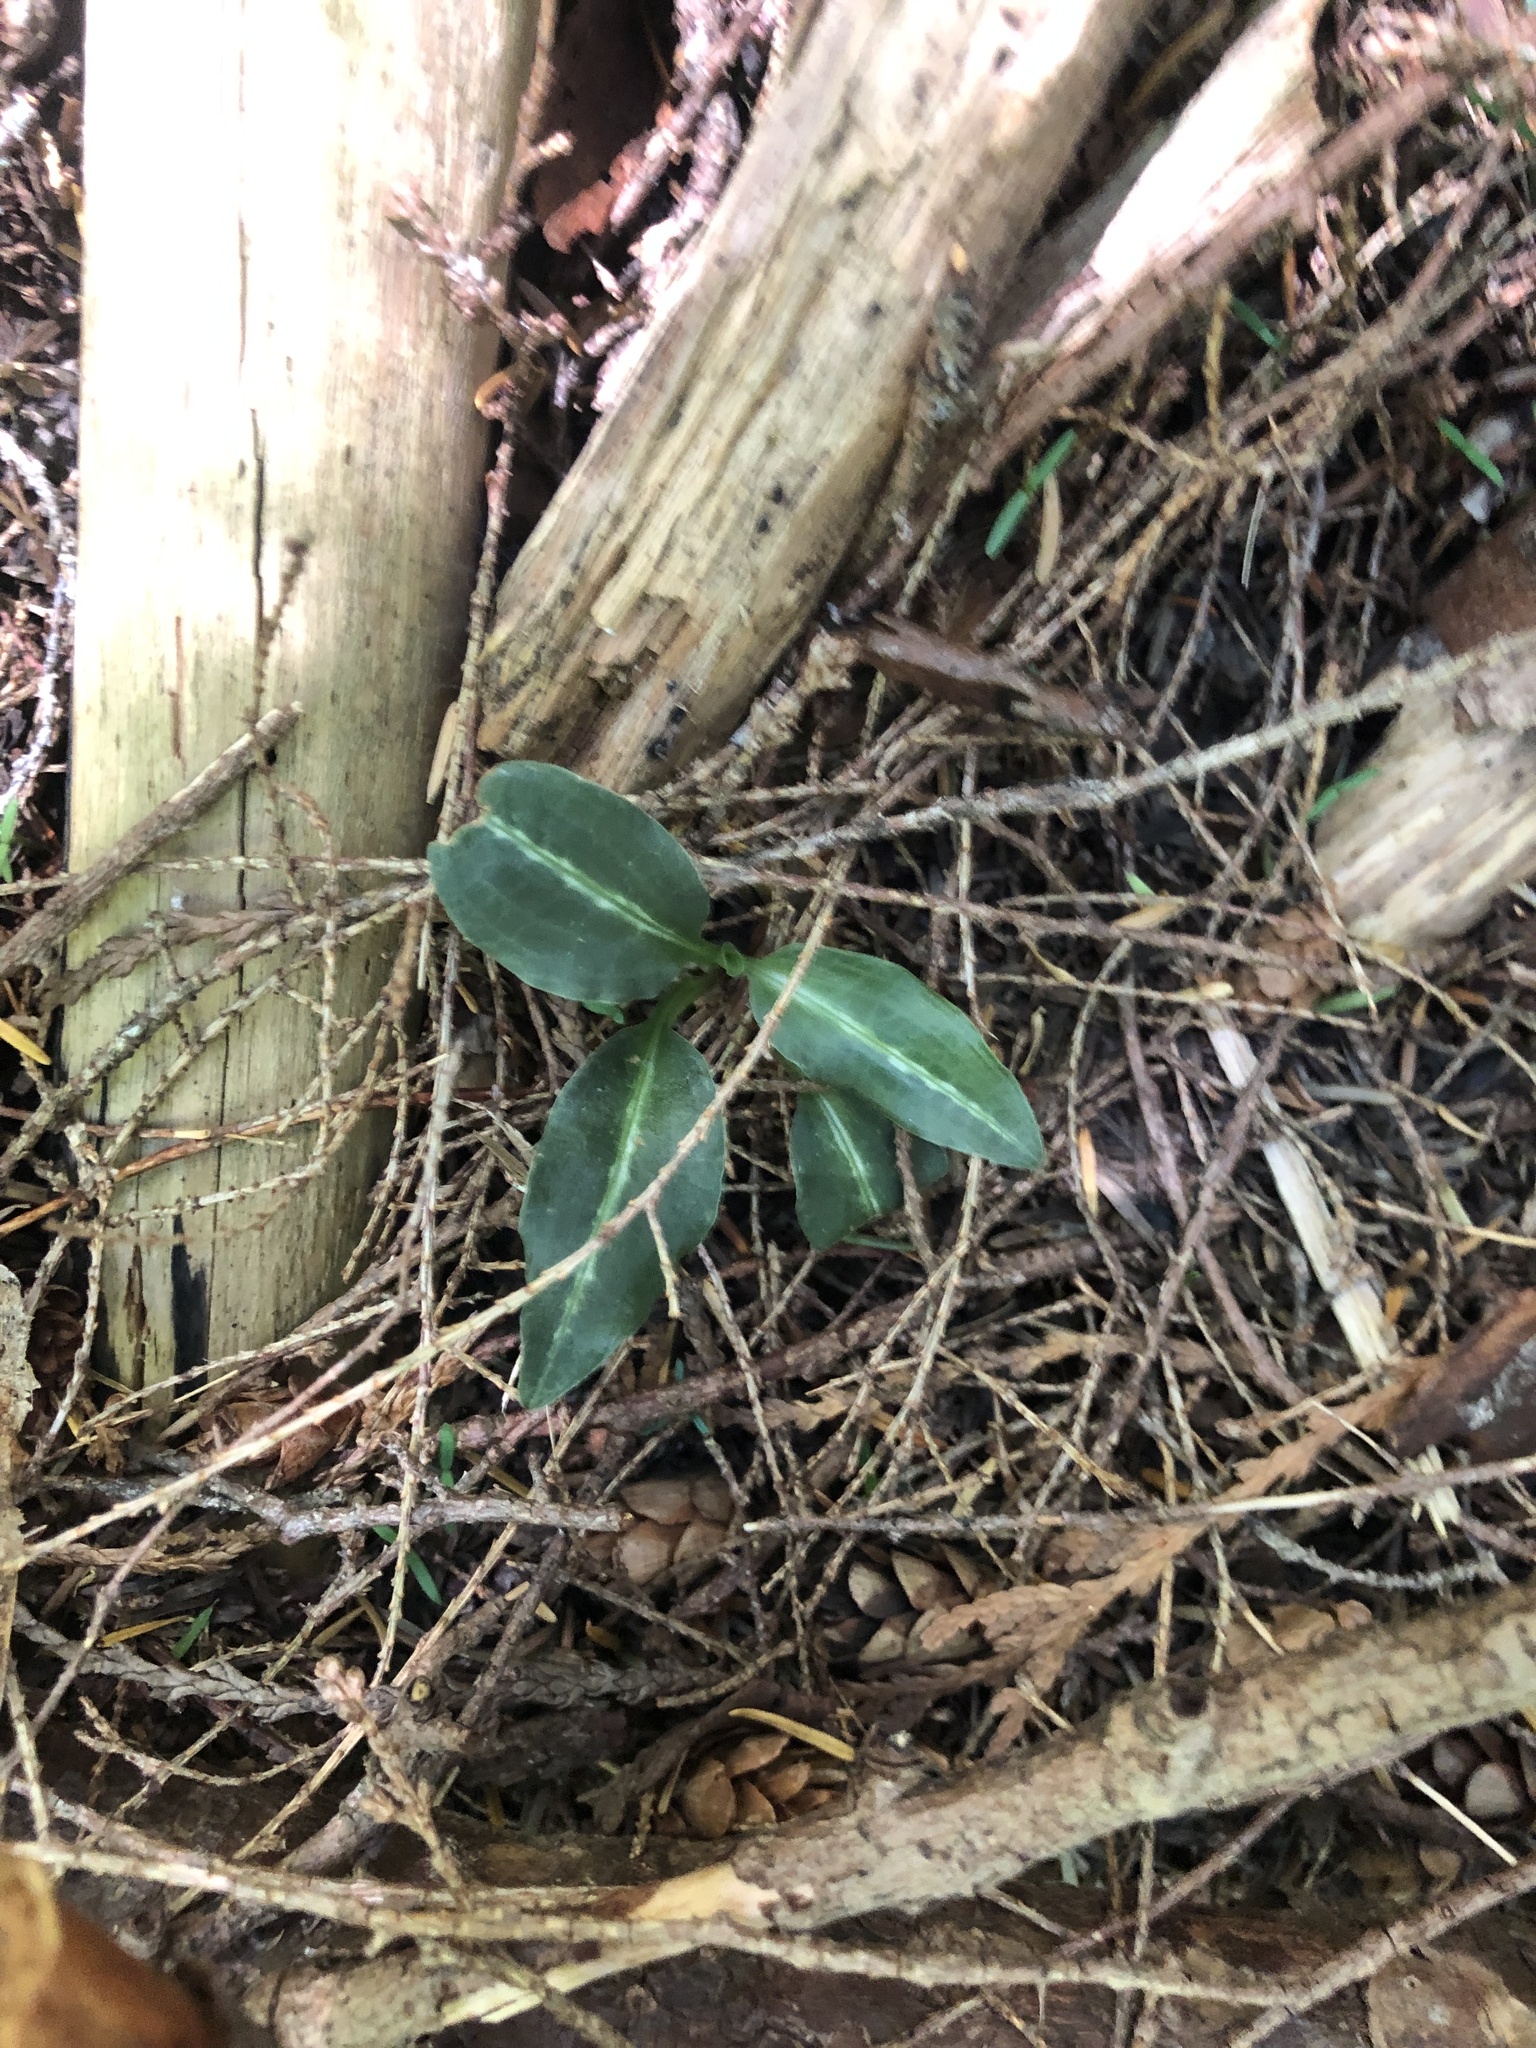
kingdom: Plantae
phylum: Tracheophyta
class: Liliopsida
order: Asparagales
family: Orchidaceae
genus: Goodyera
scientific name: Goodyera oblongifolia
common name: Giant rattlesnake-plantain
